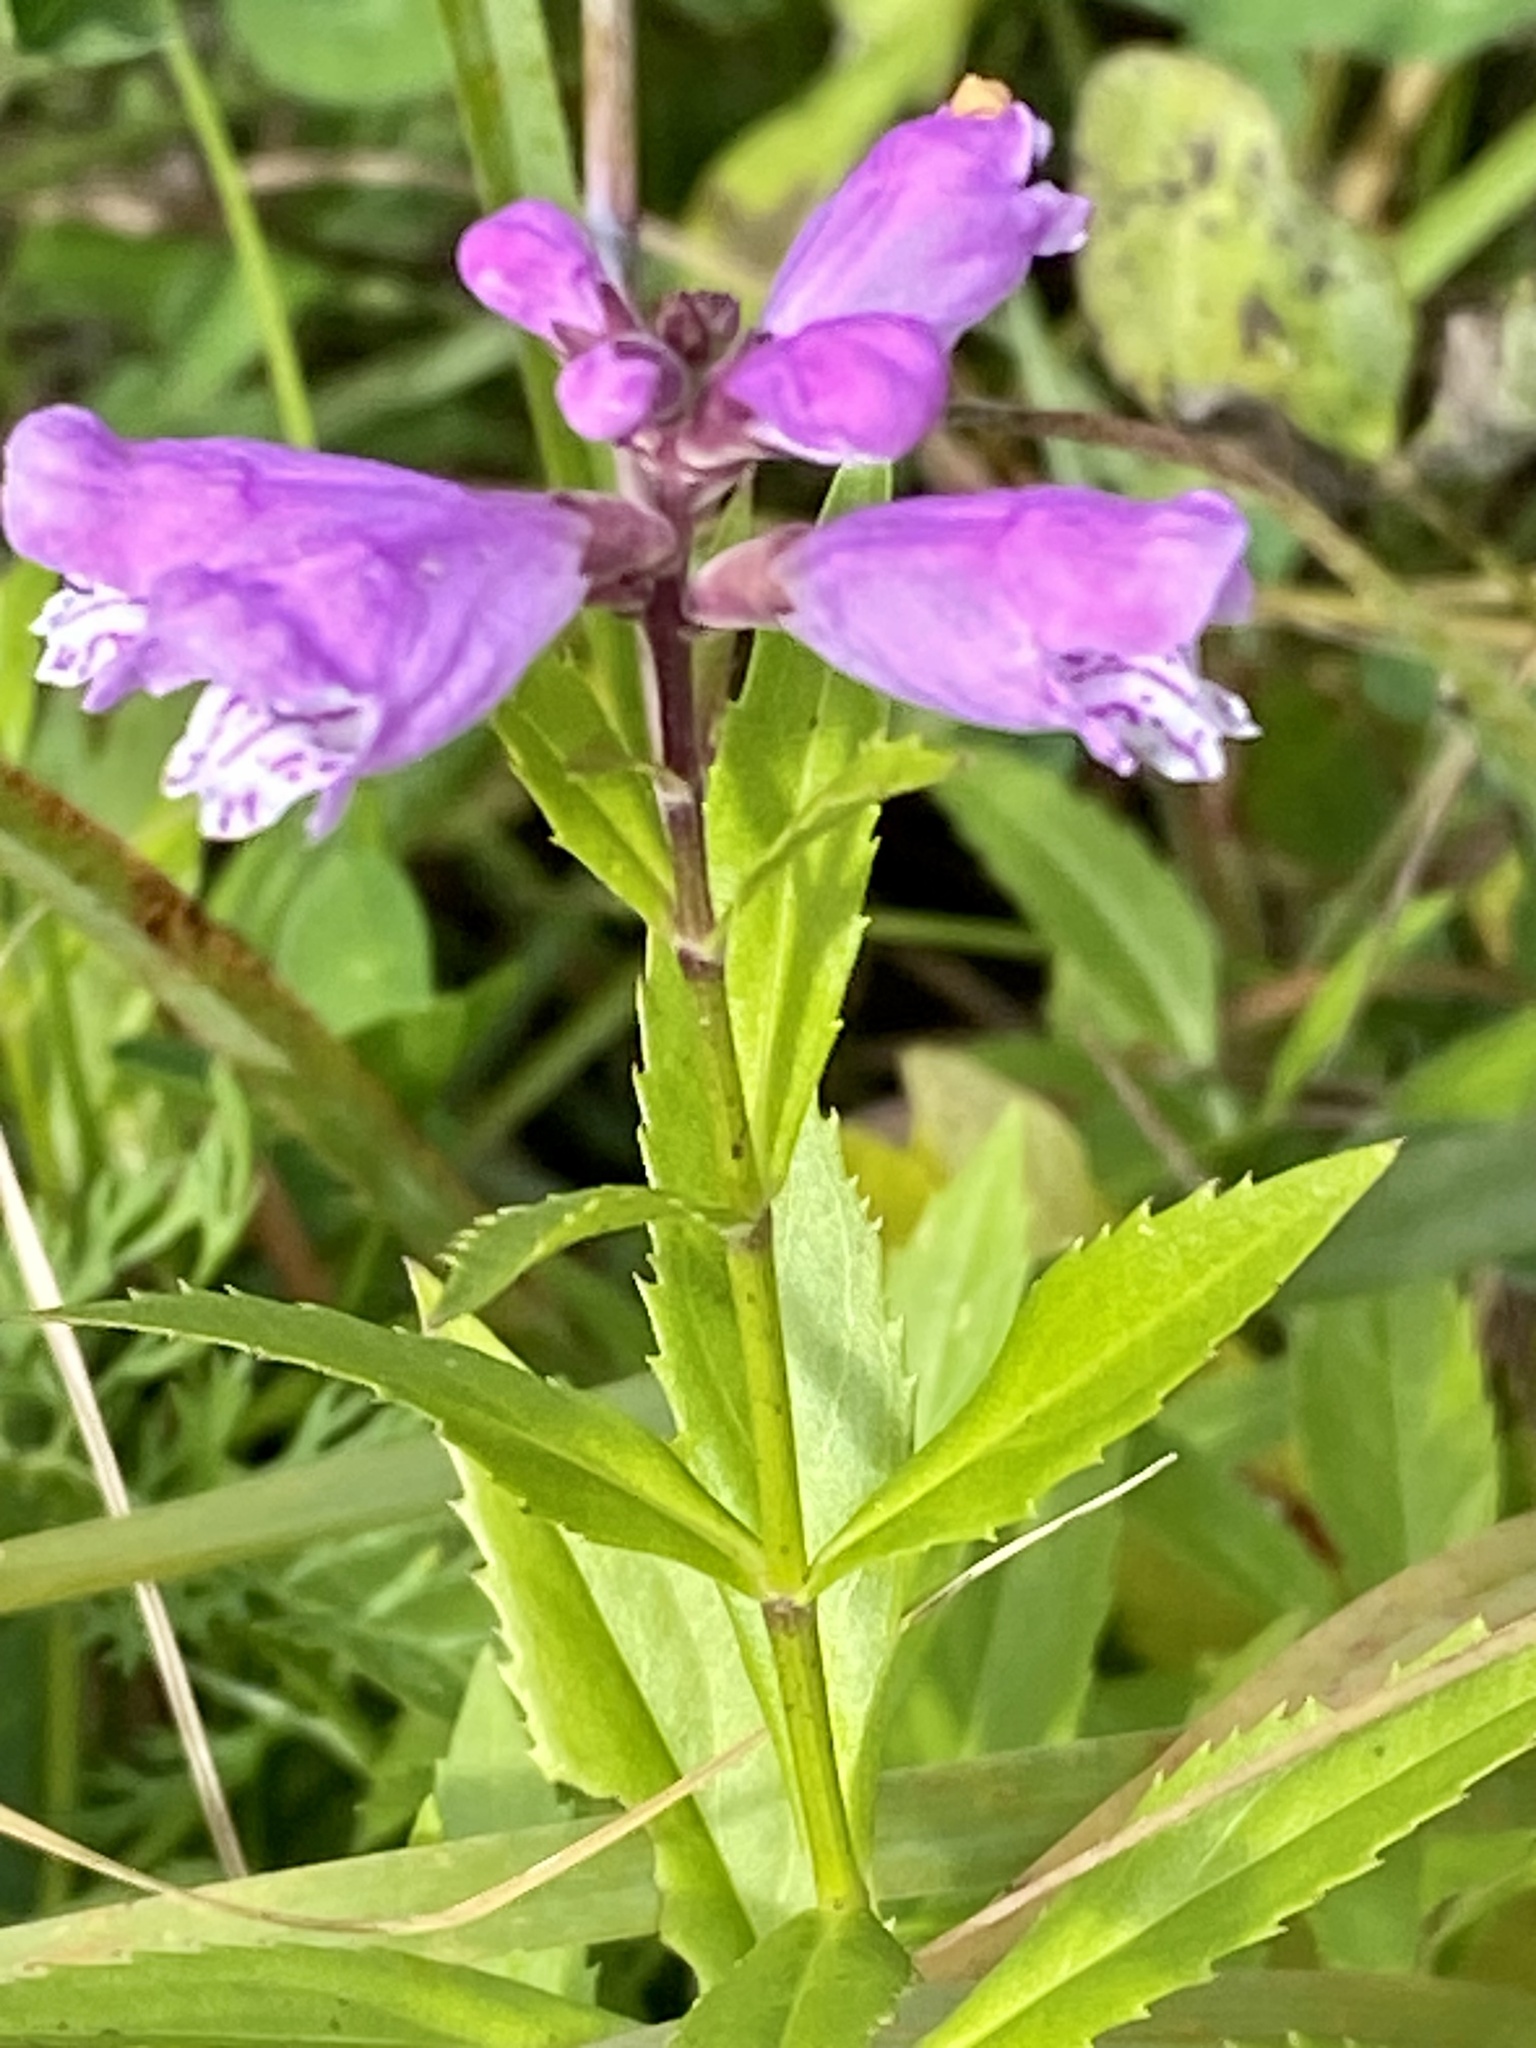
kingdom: Plantae
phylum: Tracheophyta
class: Magnoliopsida
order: Lamiales
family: Lamiaceae
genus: Physostegia
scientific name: Physostegia virginiana
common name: Obedient-plant
